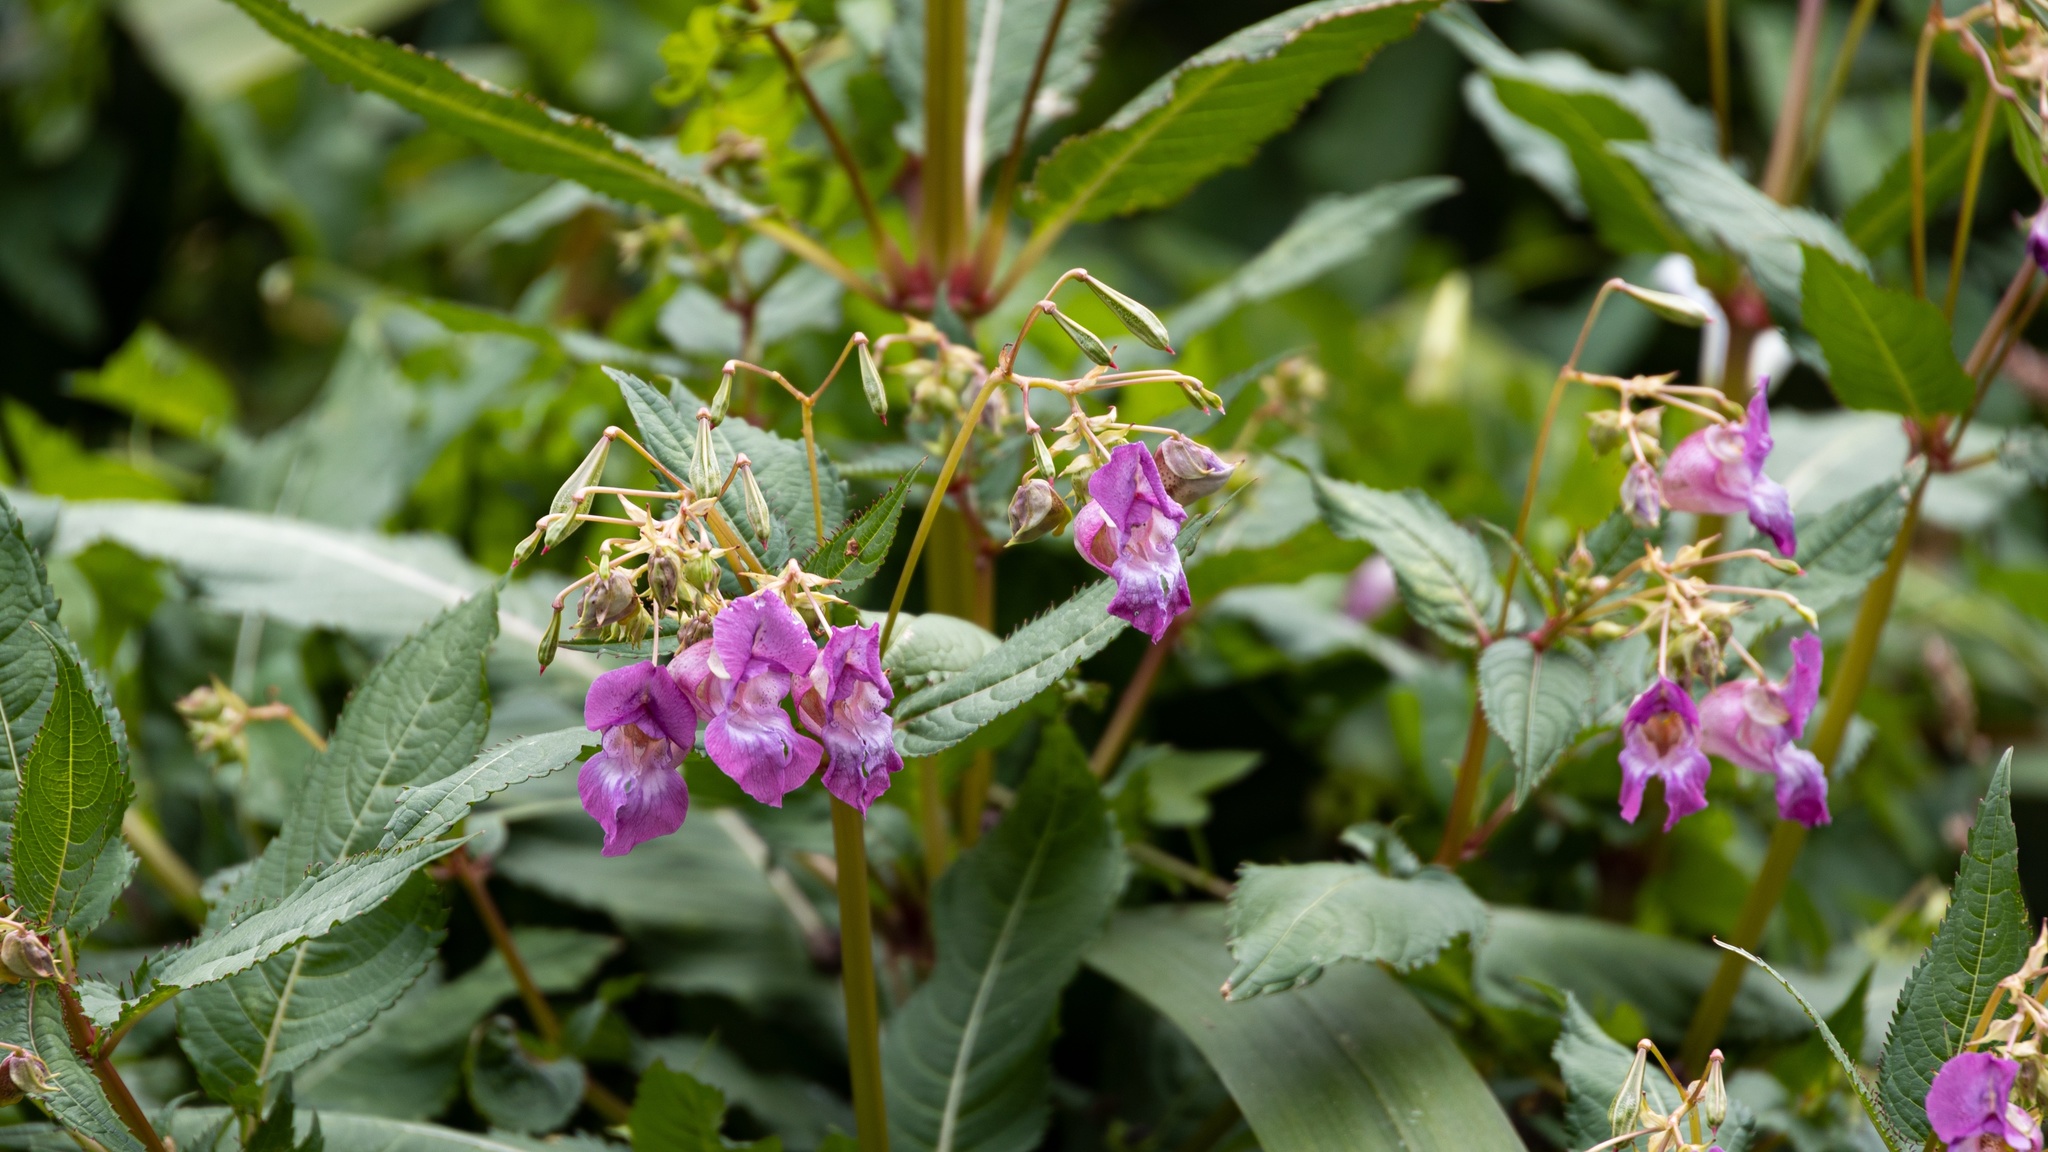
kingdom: Plantae
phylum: Tracheophyta
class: Magnoliopsida
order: Ericales
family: Balsaminaceae
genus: Impatiens
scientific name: Impatiens glandulifera
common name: Himalayan balsam
